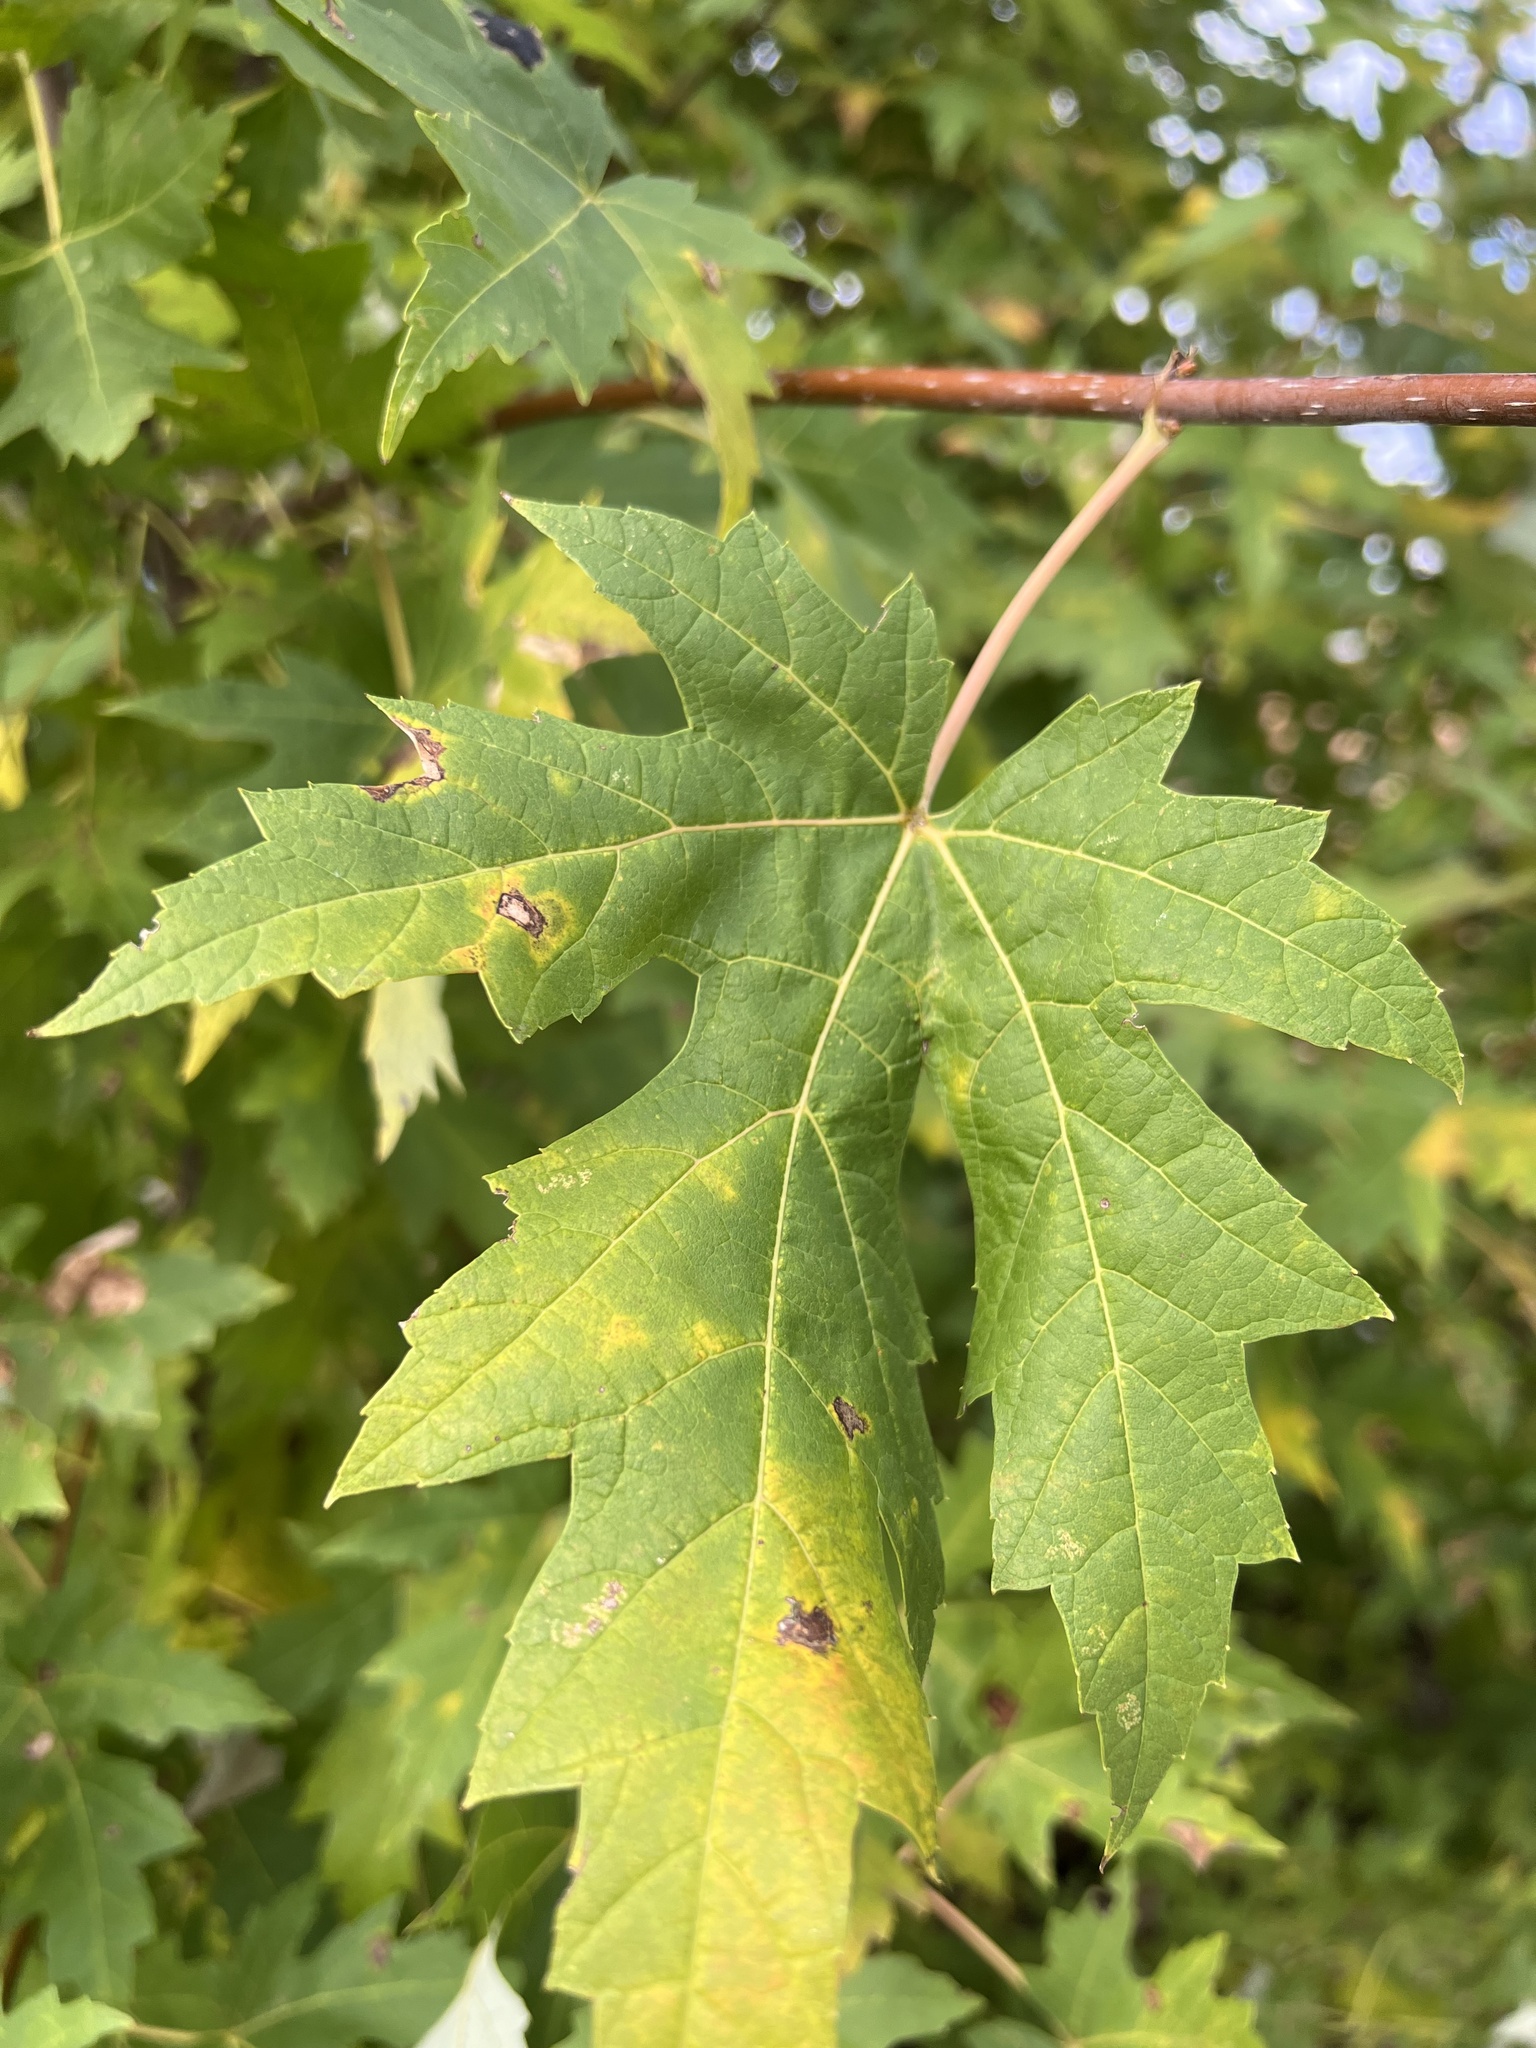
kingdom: Plantae
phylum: Tracheophyta
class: Magnoliopsida
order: Sapindales
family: Sapindaceae
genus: Acer
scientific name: Acer saccharinum
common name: Silver maple
